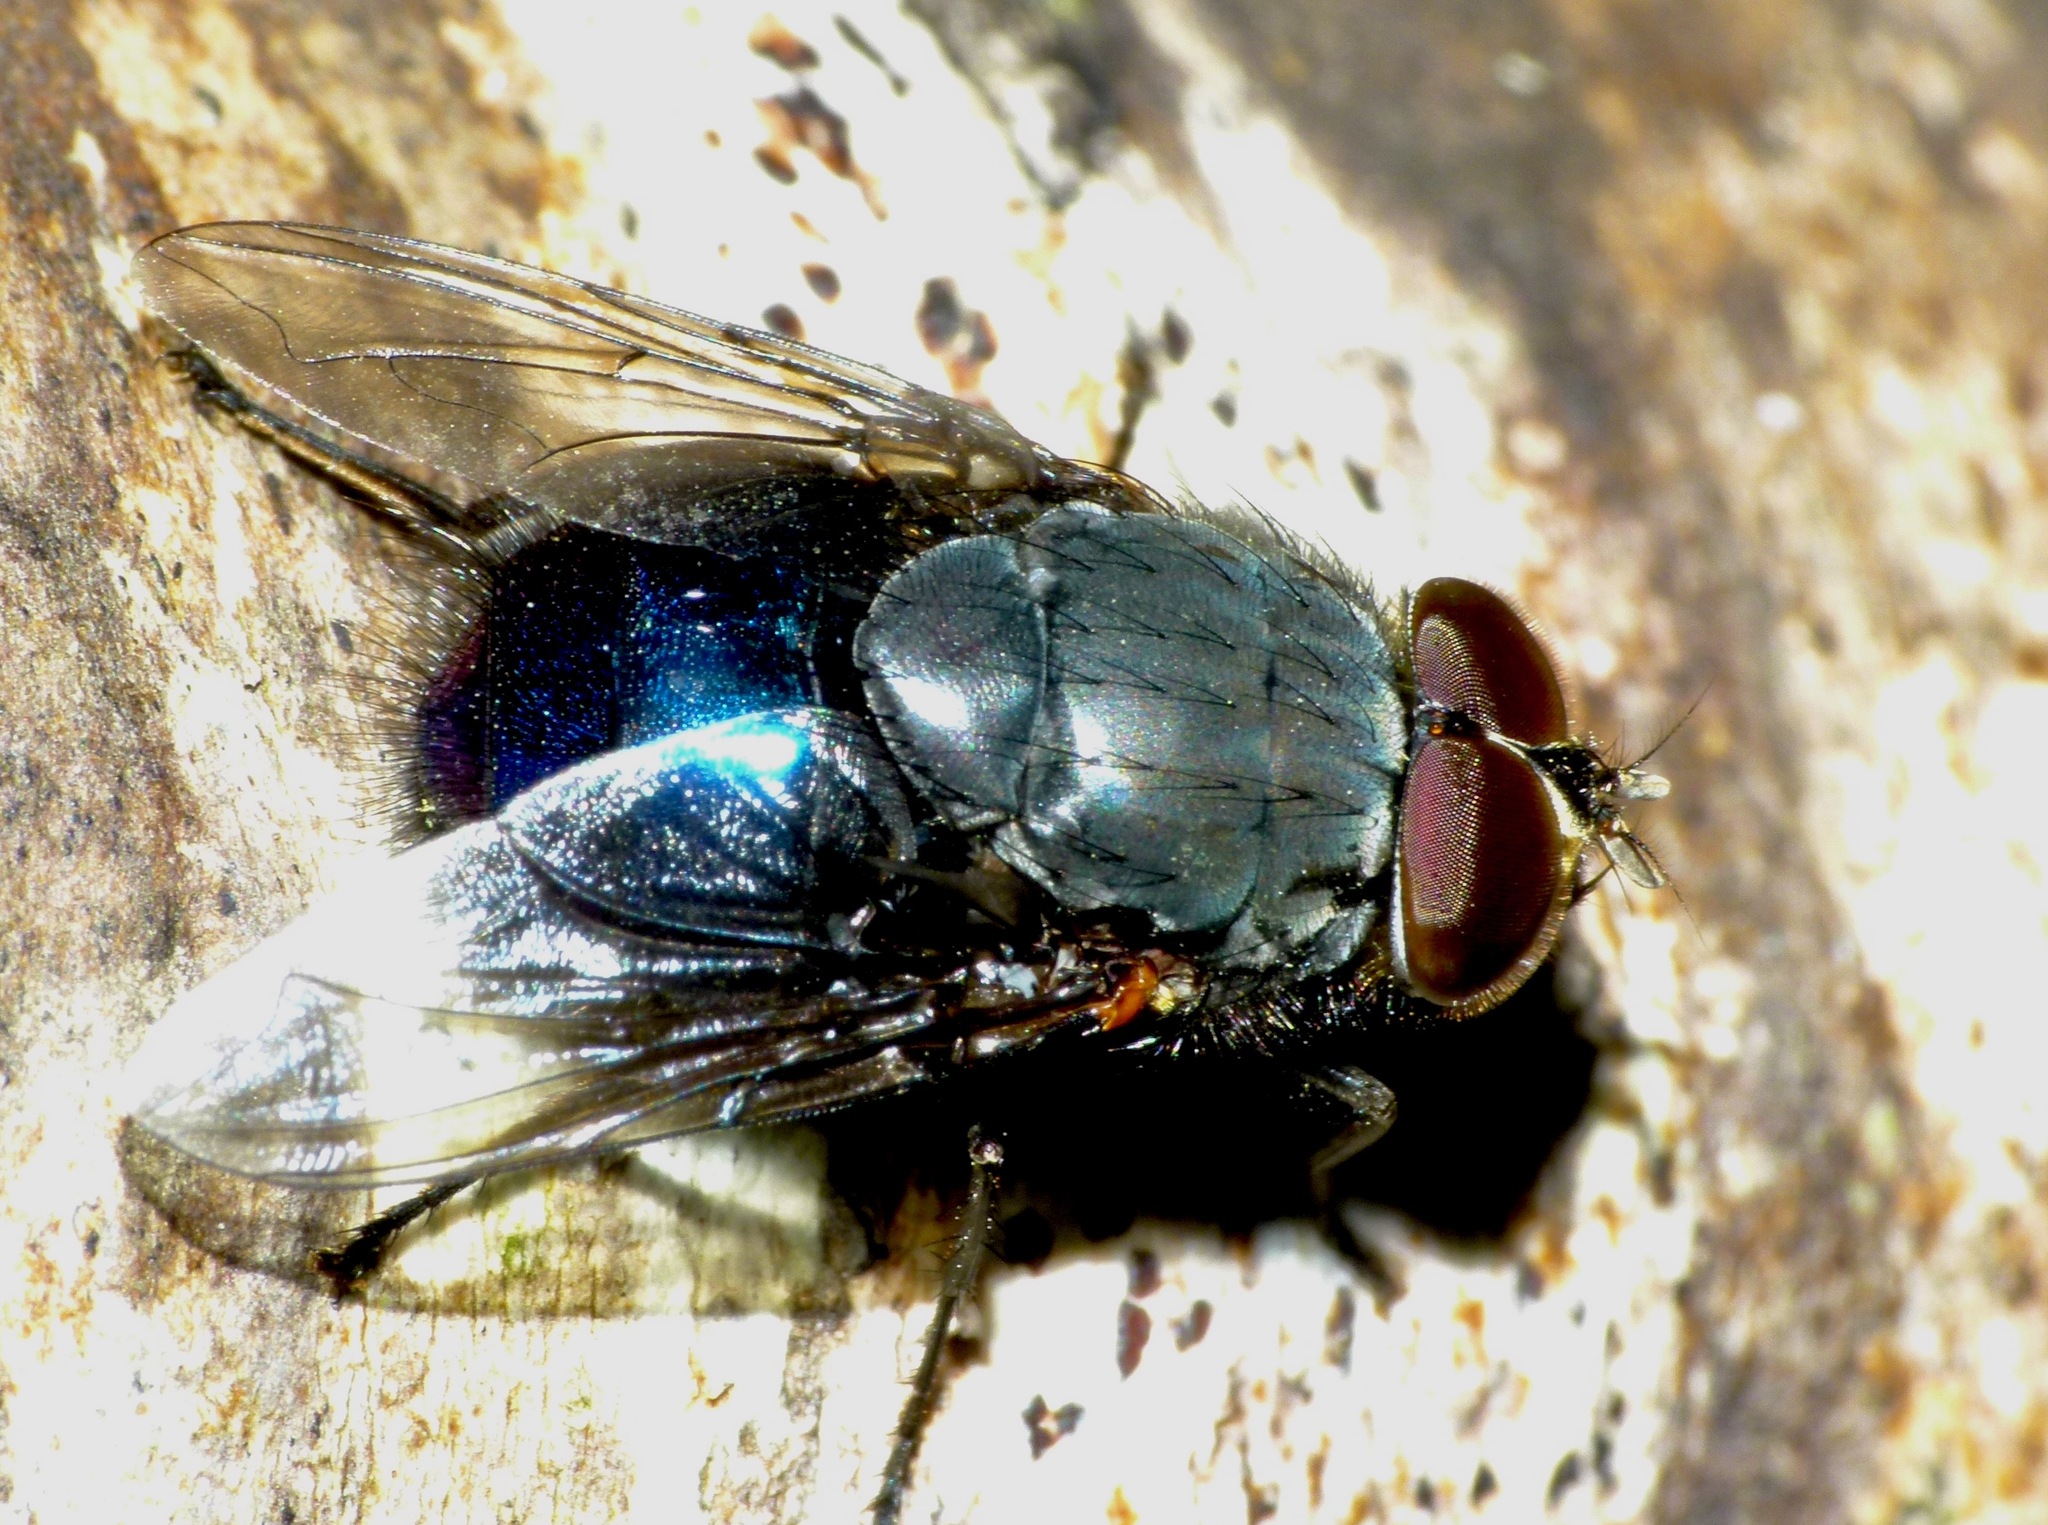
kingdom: Animalia
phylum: Arthropoda
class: Insecta
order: Diptera
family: Calliphoridae
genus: Calliphora
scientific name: Calliphora quadrimaculata
